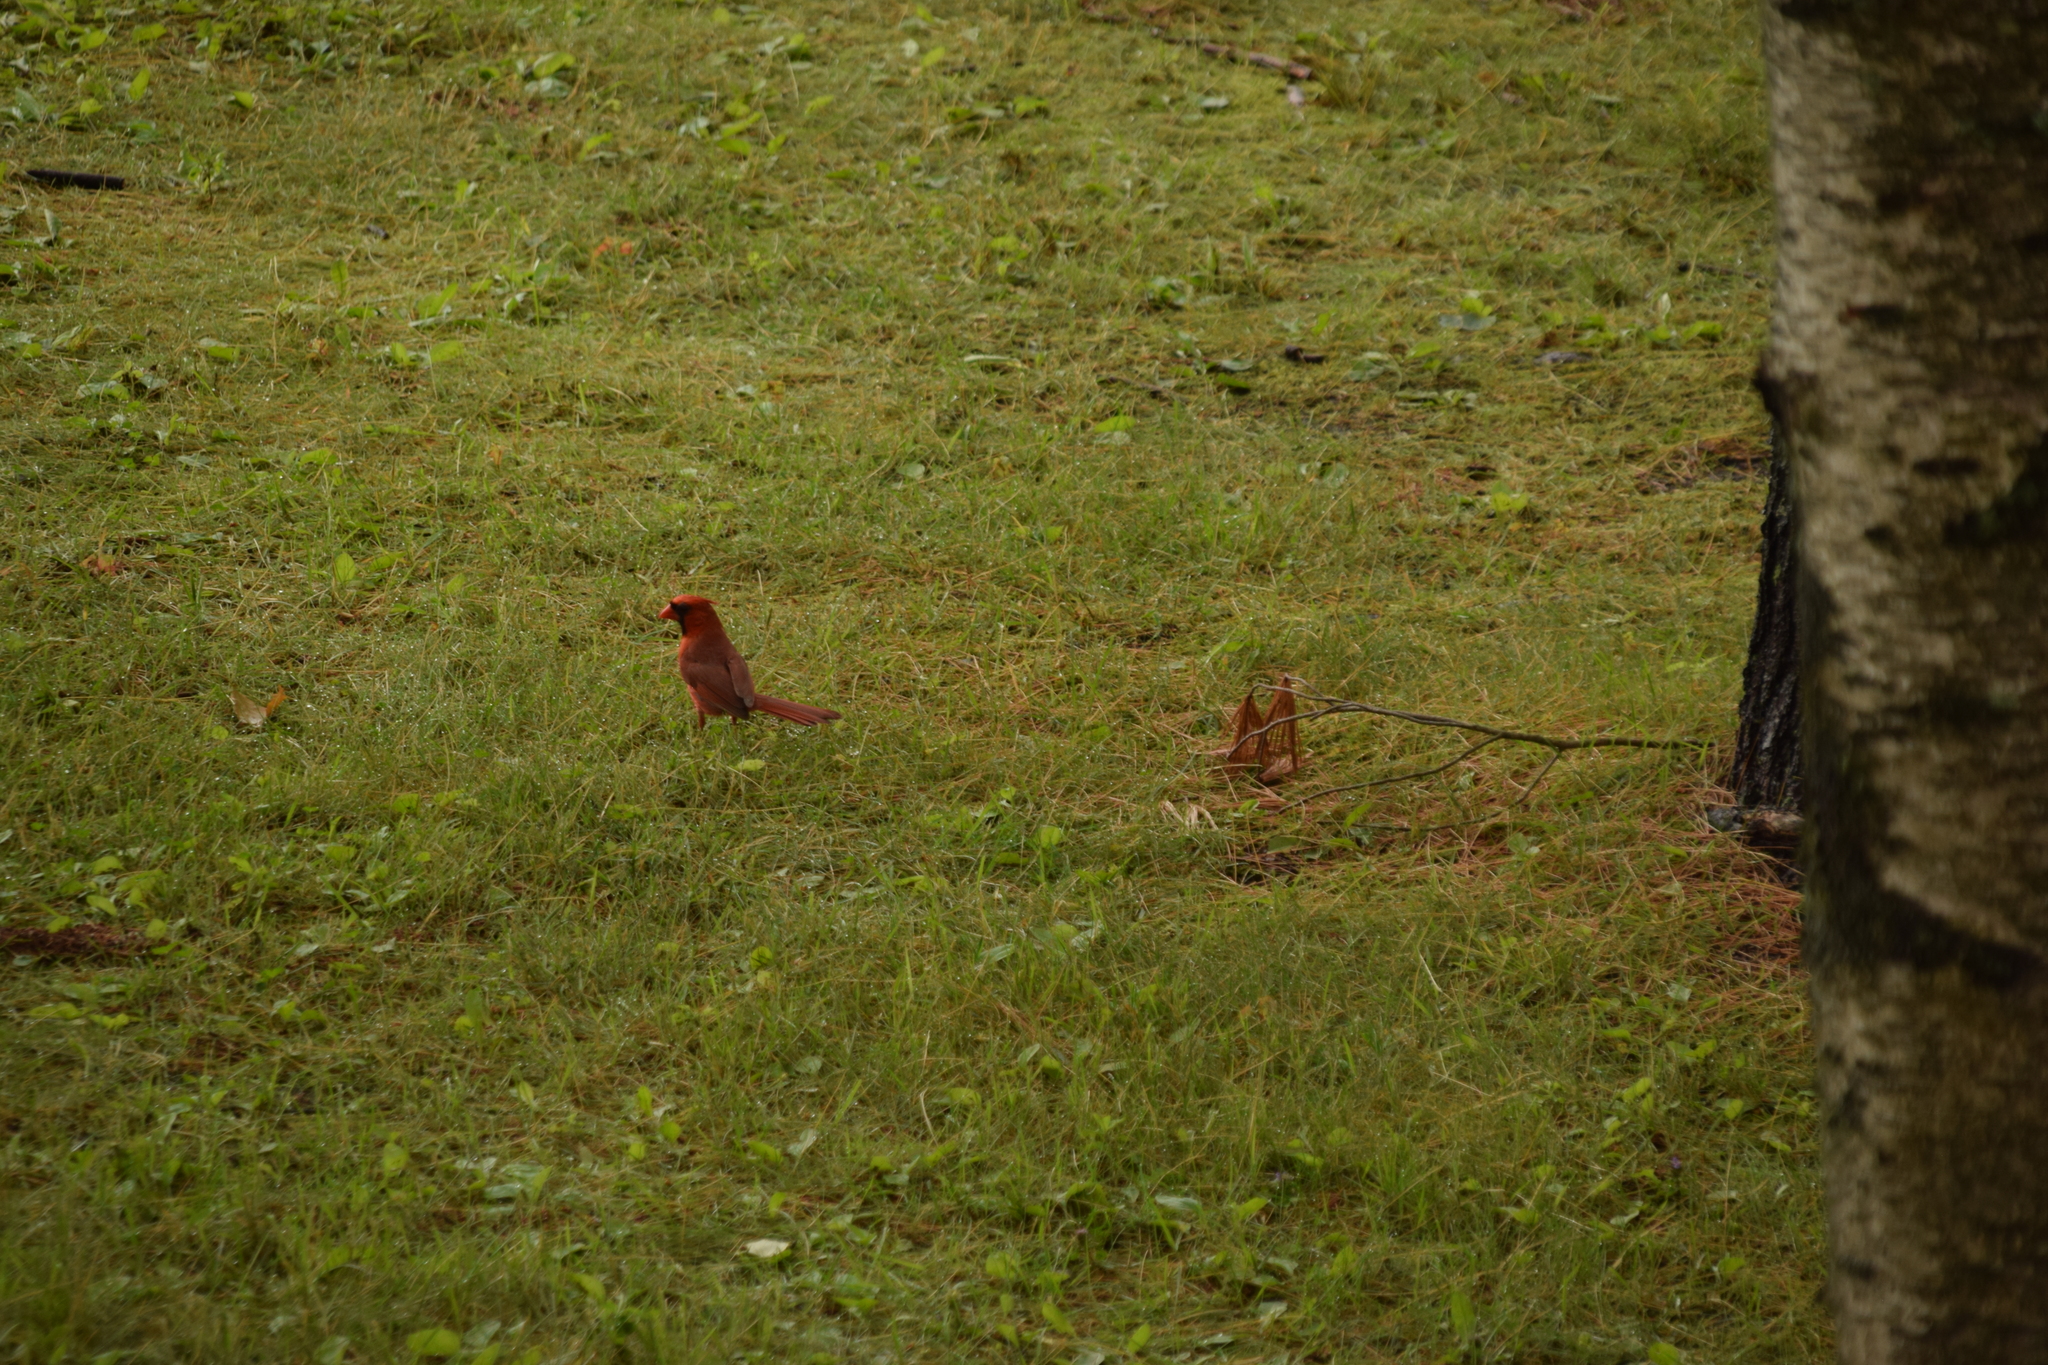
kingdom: Animalia
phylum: Chordata
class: Aves
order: Passeriformes
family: Cardinalidae
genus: Cardinalis
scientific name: Cardinalis cardinalis
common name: Northern cardinal
